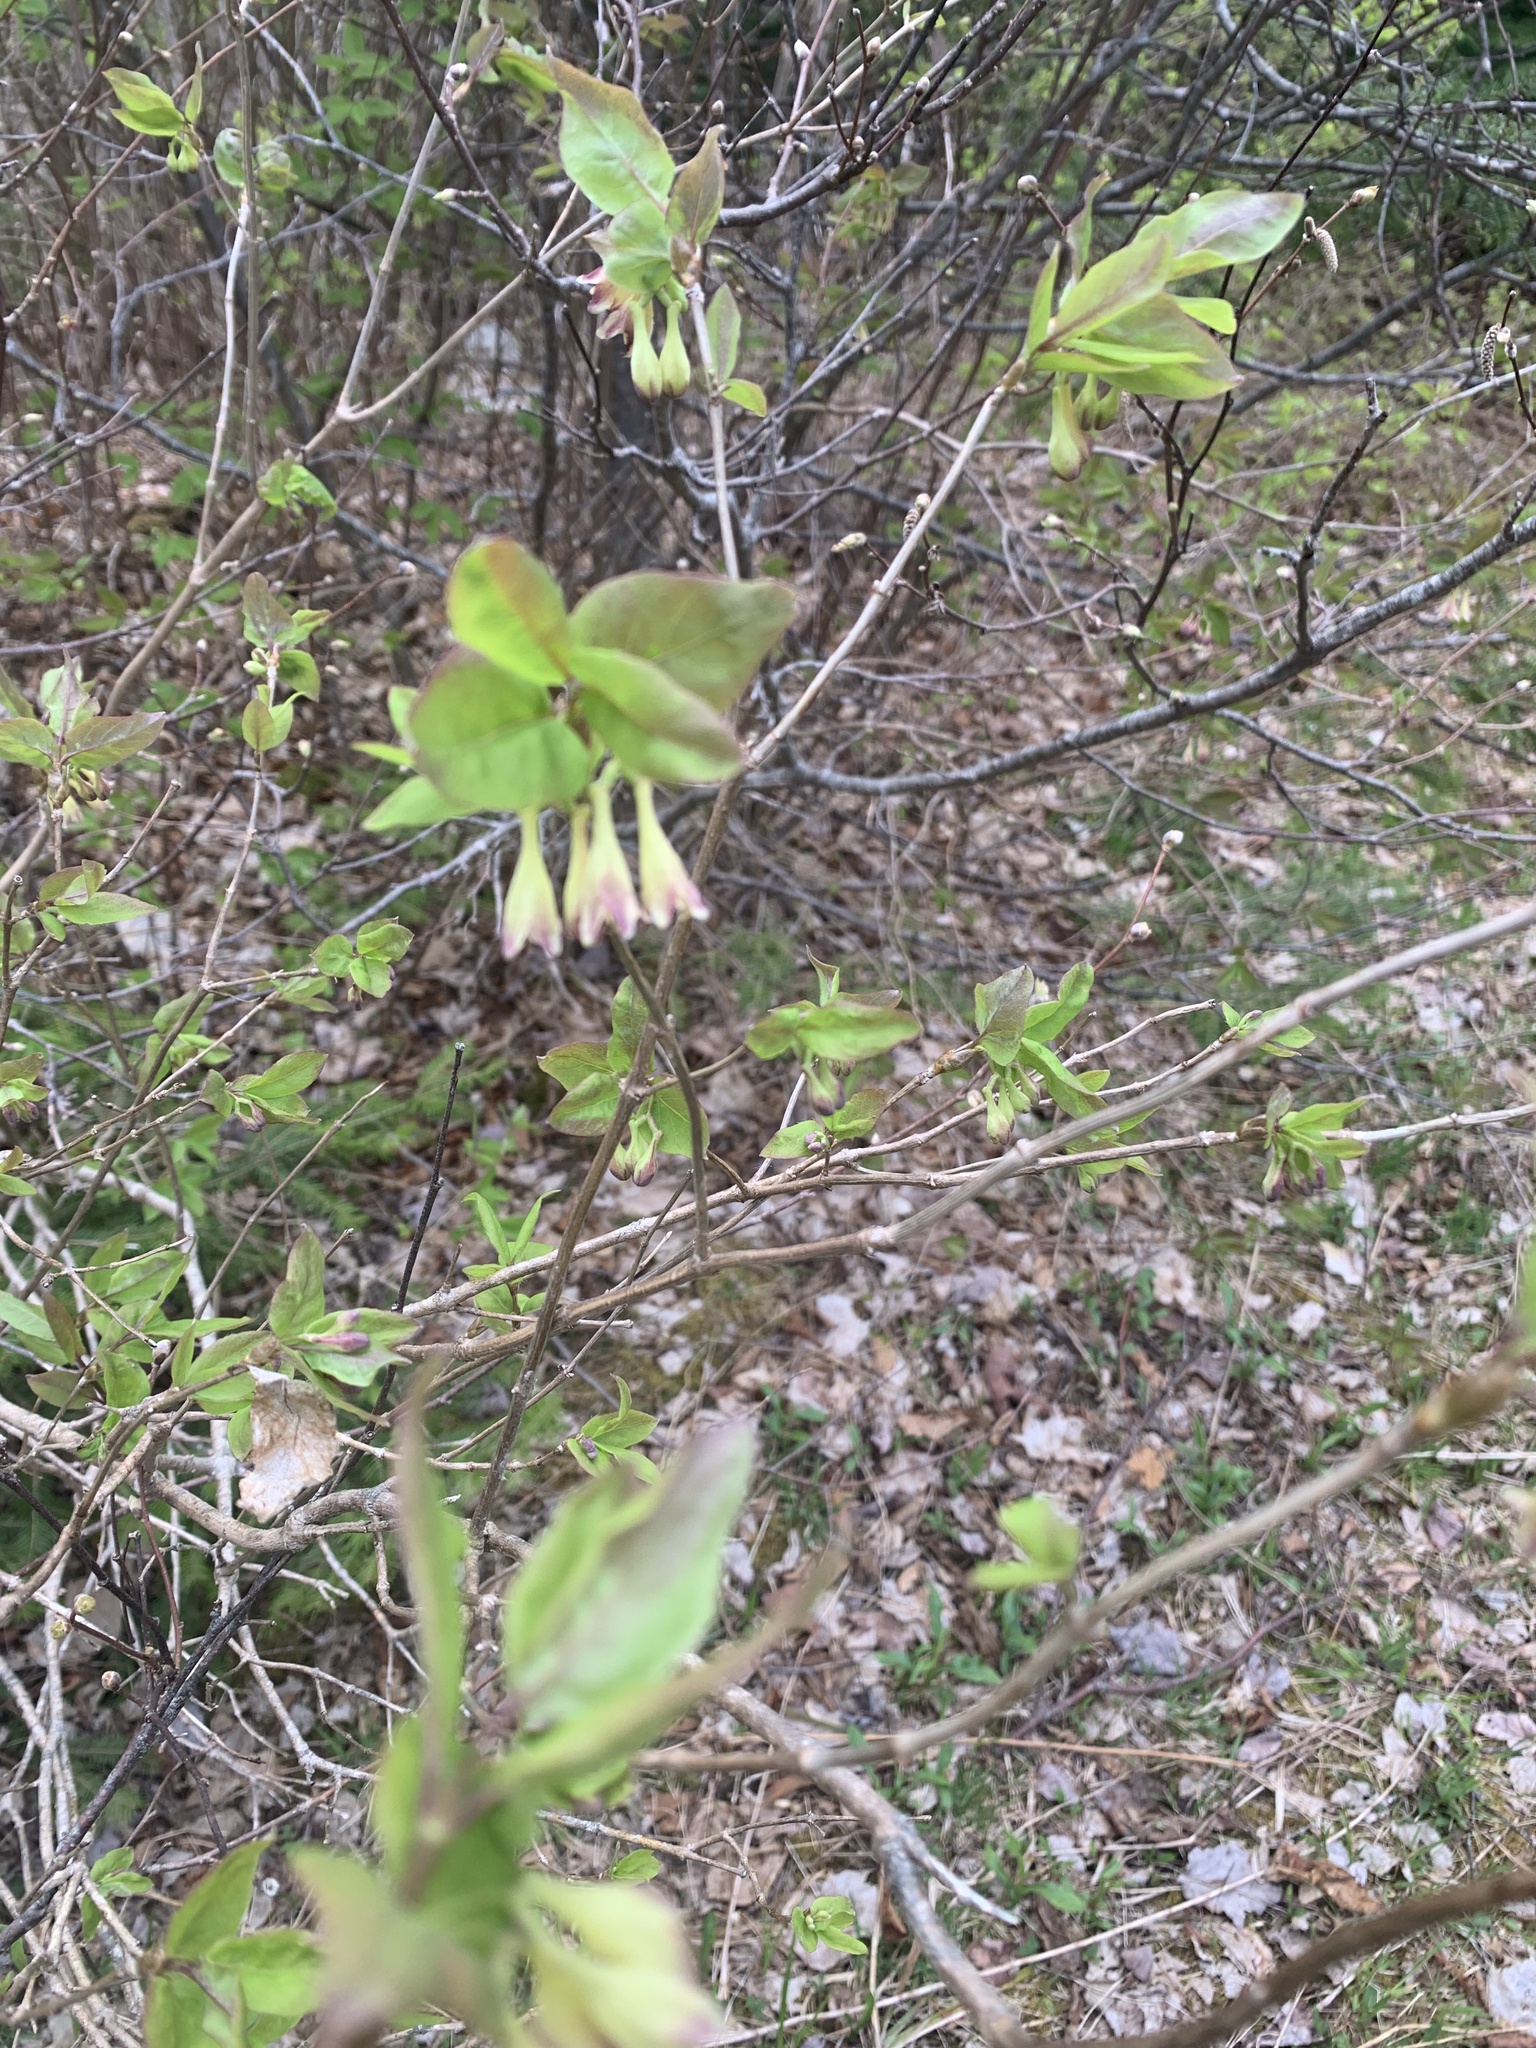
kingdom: Plantae
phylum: Tracheophyta
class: Magnoliopsida
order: Dipsacales
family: Caprifoliaceae
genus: Lonicera
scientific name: Lonicera canadensis
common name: American fly-honeysuckle
